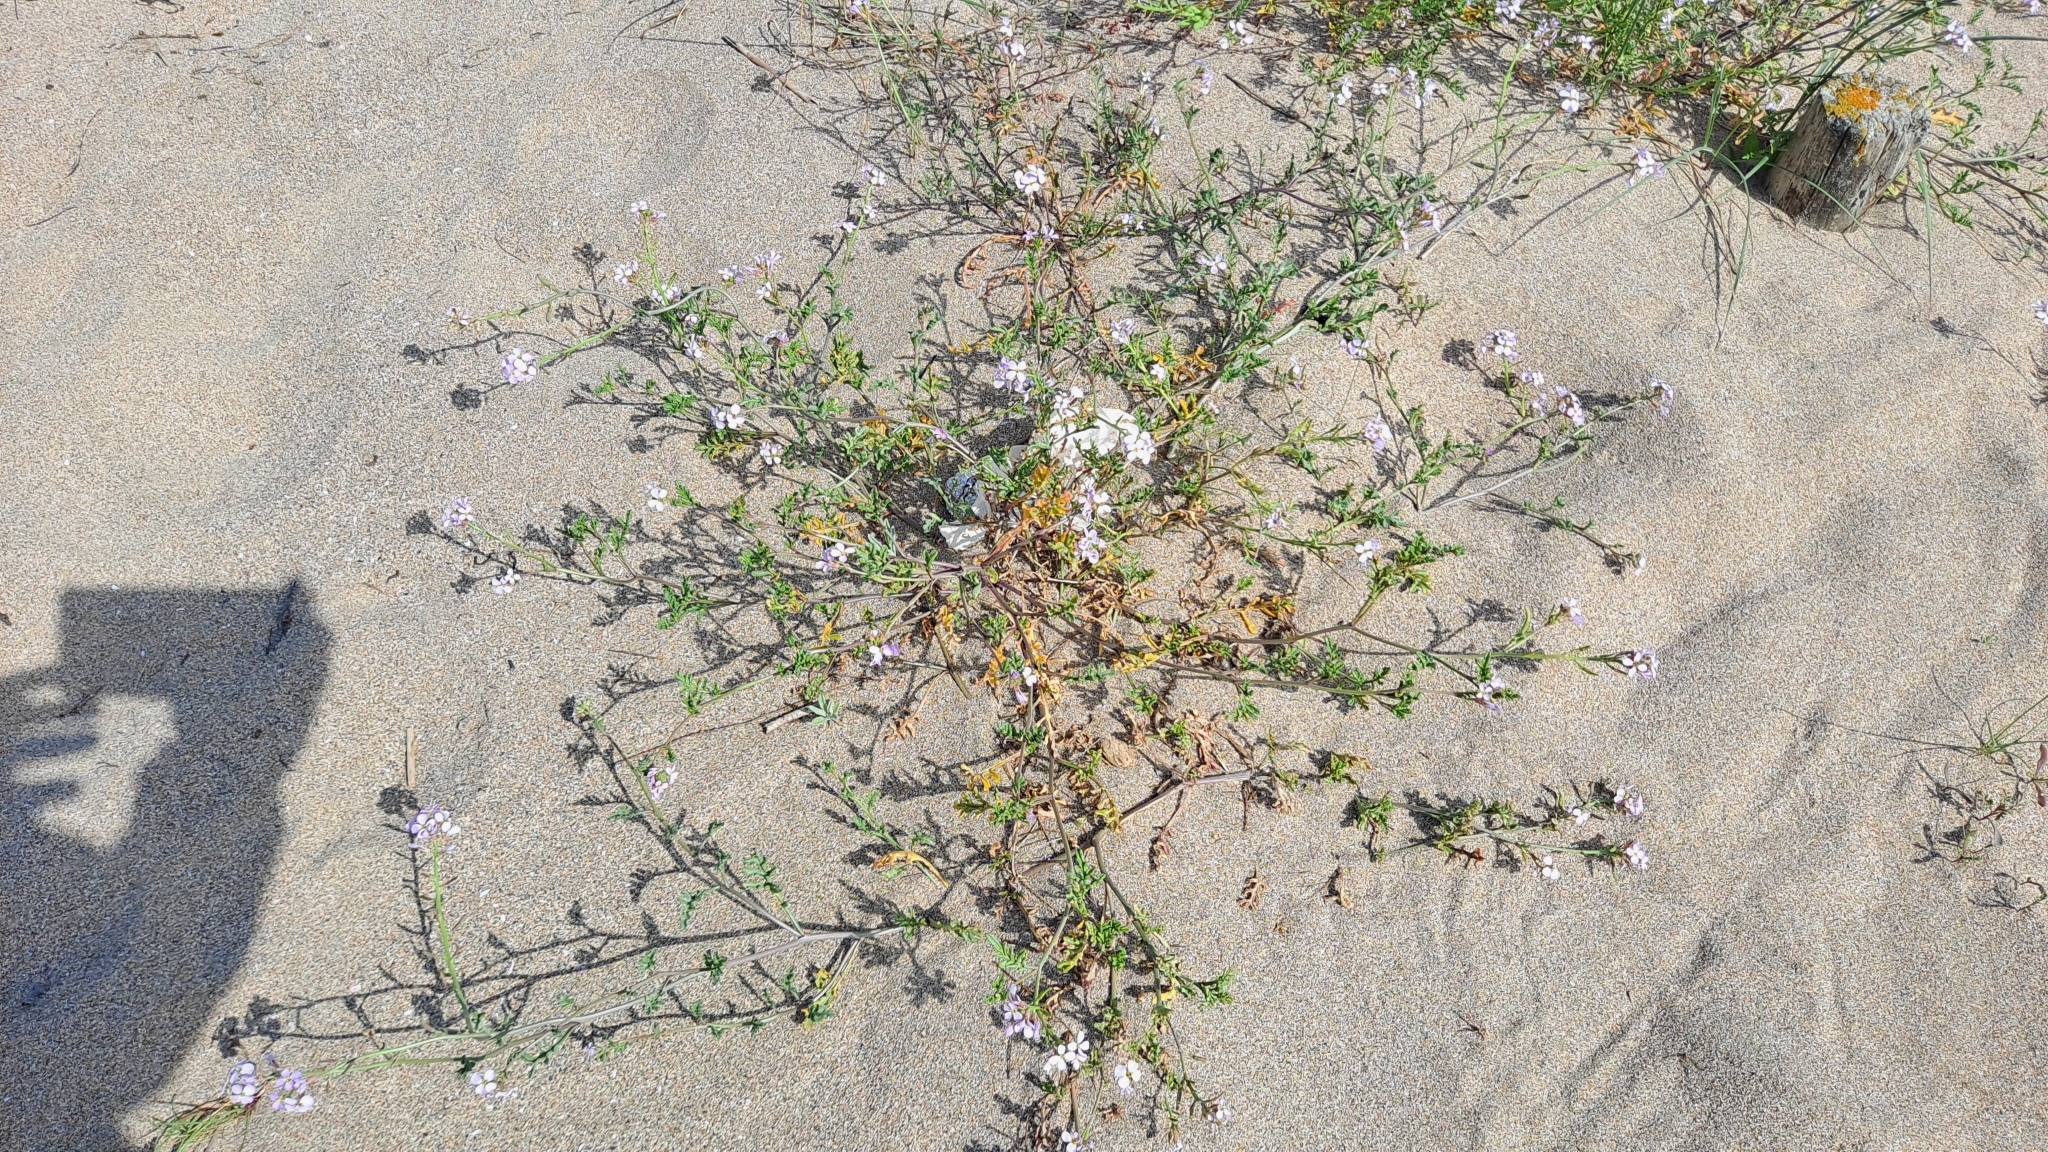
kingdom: Plantae
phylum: Tracheophyta
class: Magnoliopsida
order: Brassicales
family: Brassicaceae
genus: Cakile
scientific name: Cakile maritima
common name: Sea rocket
